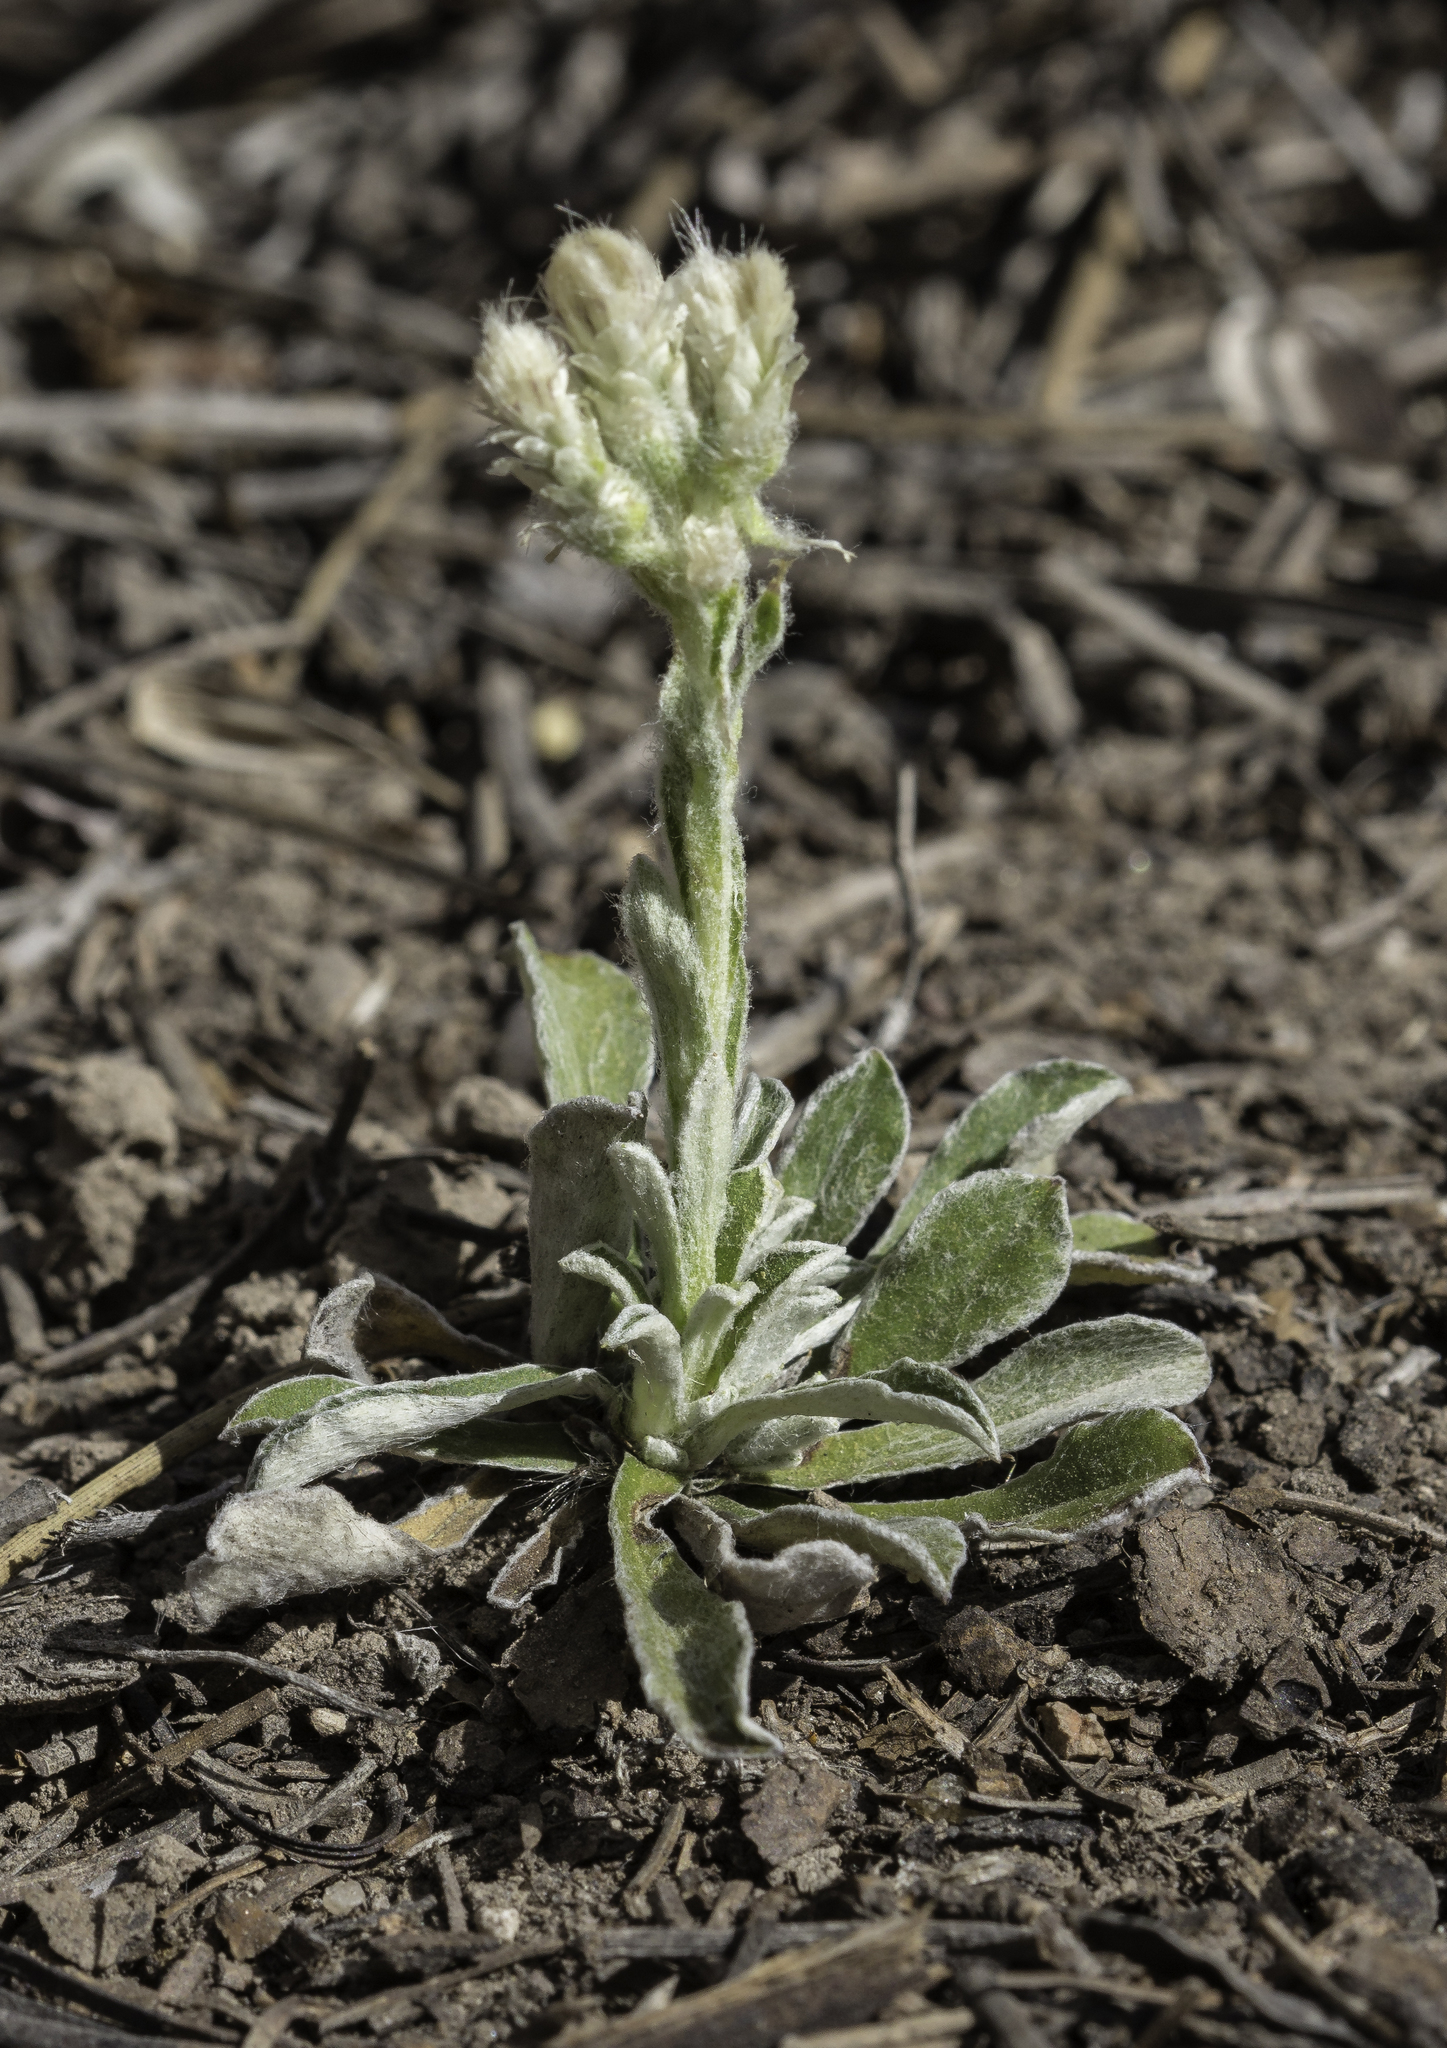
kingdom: Plantae
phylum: Tracheophyta
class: Magnoliopsida
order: Asterales
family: Asteraceae
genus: Antennaria
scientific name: Antennaria marginata
